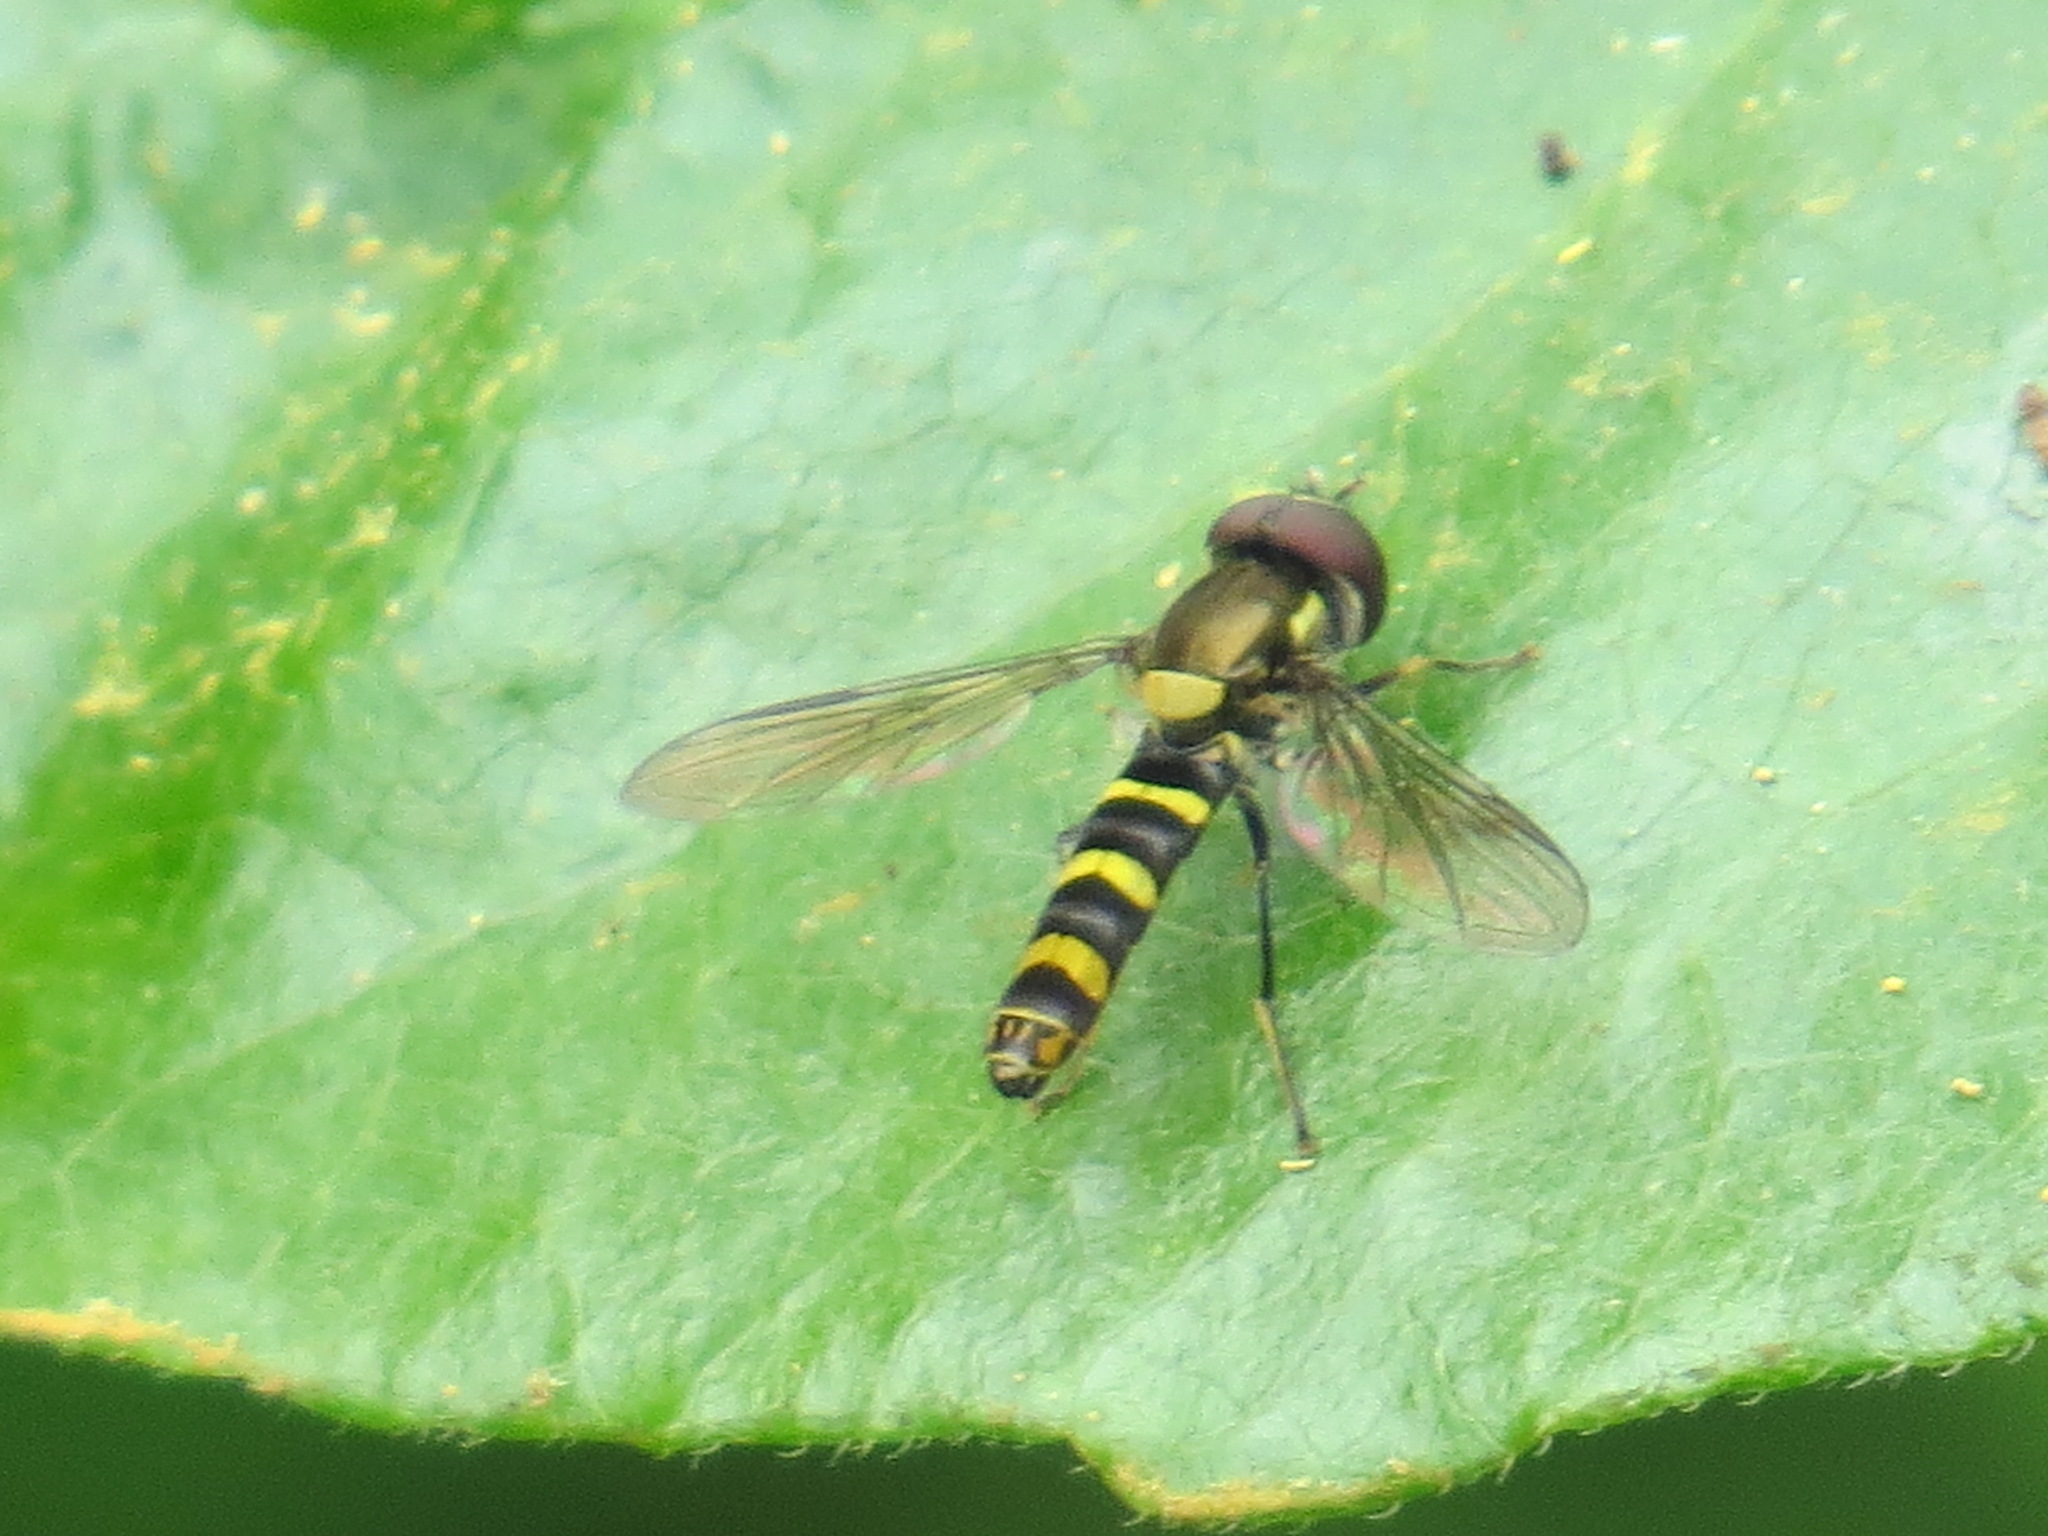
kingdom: Animalia
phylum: Arthropoda
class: Insecta
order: Diptera
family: Syrphidae
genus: Fazia
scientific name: Fazia micrura
